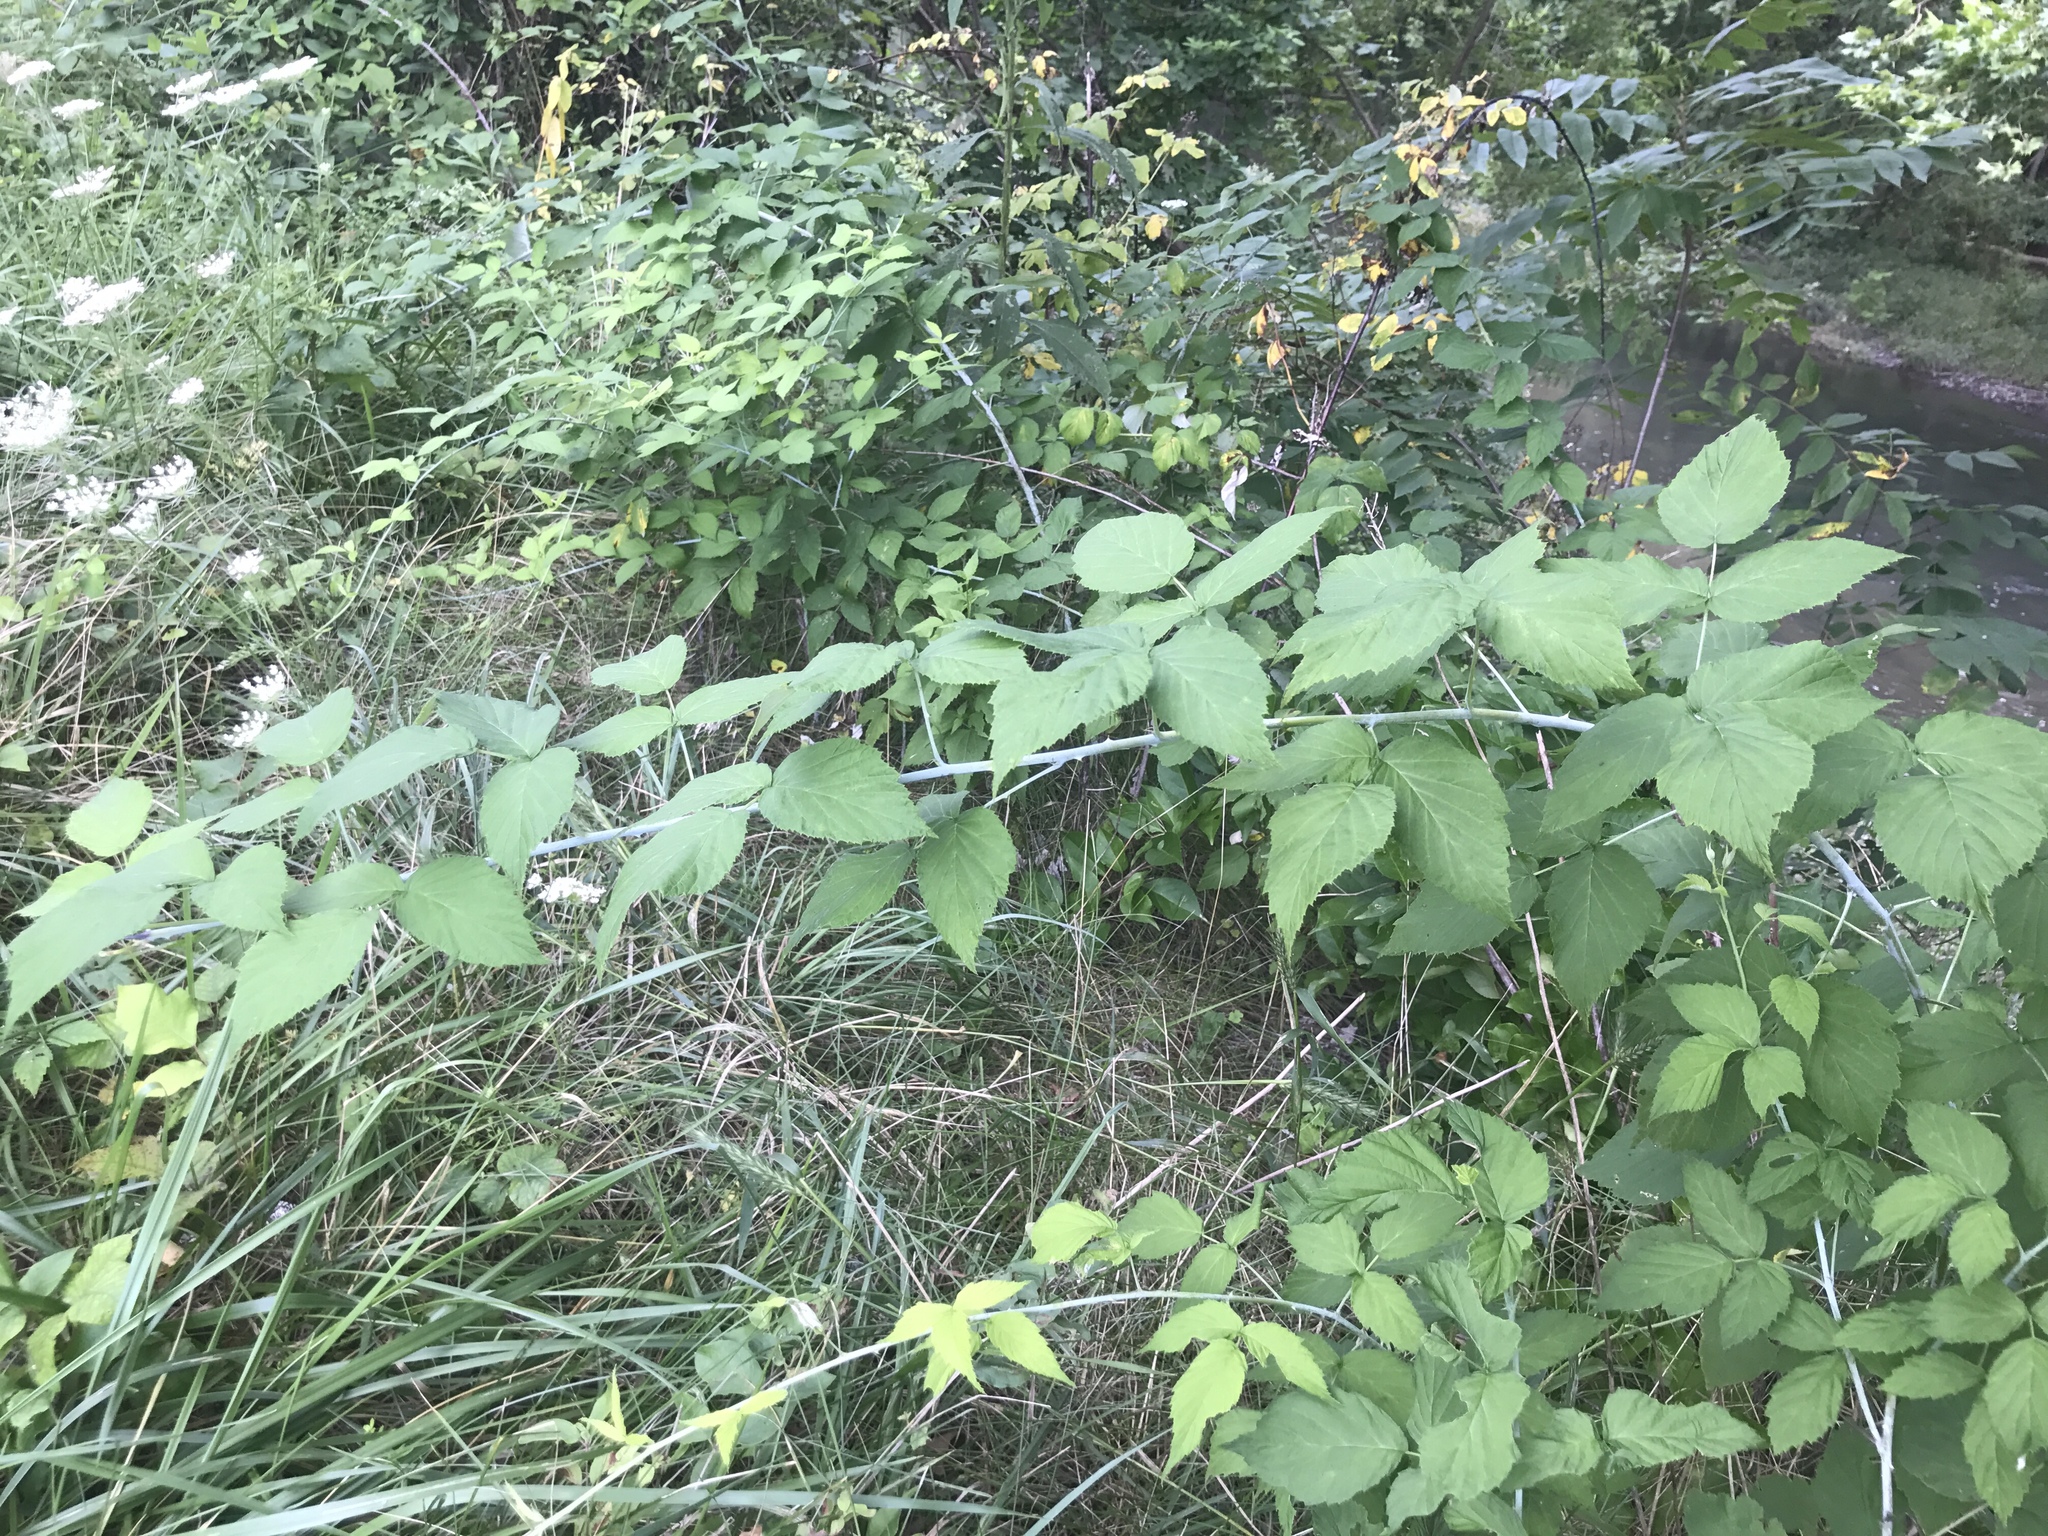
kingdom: Plantae
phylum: Tracheophyta
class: Magnoliopsida
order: Rosales
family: Rosaceae
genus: Rubus
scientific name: Rubus occidentalis
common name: Black raspberry
